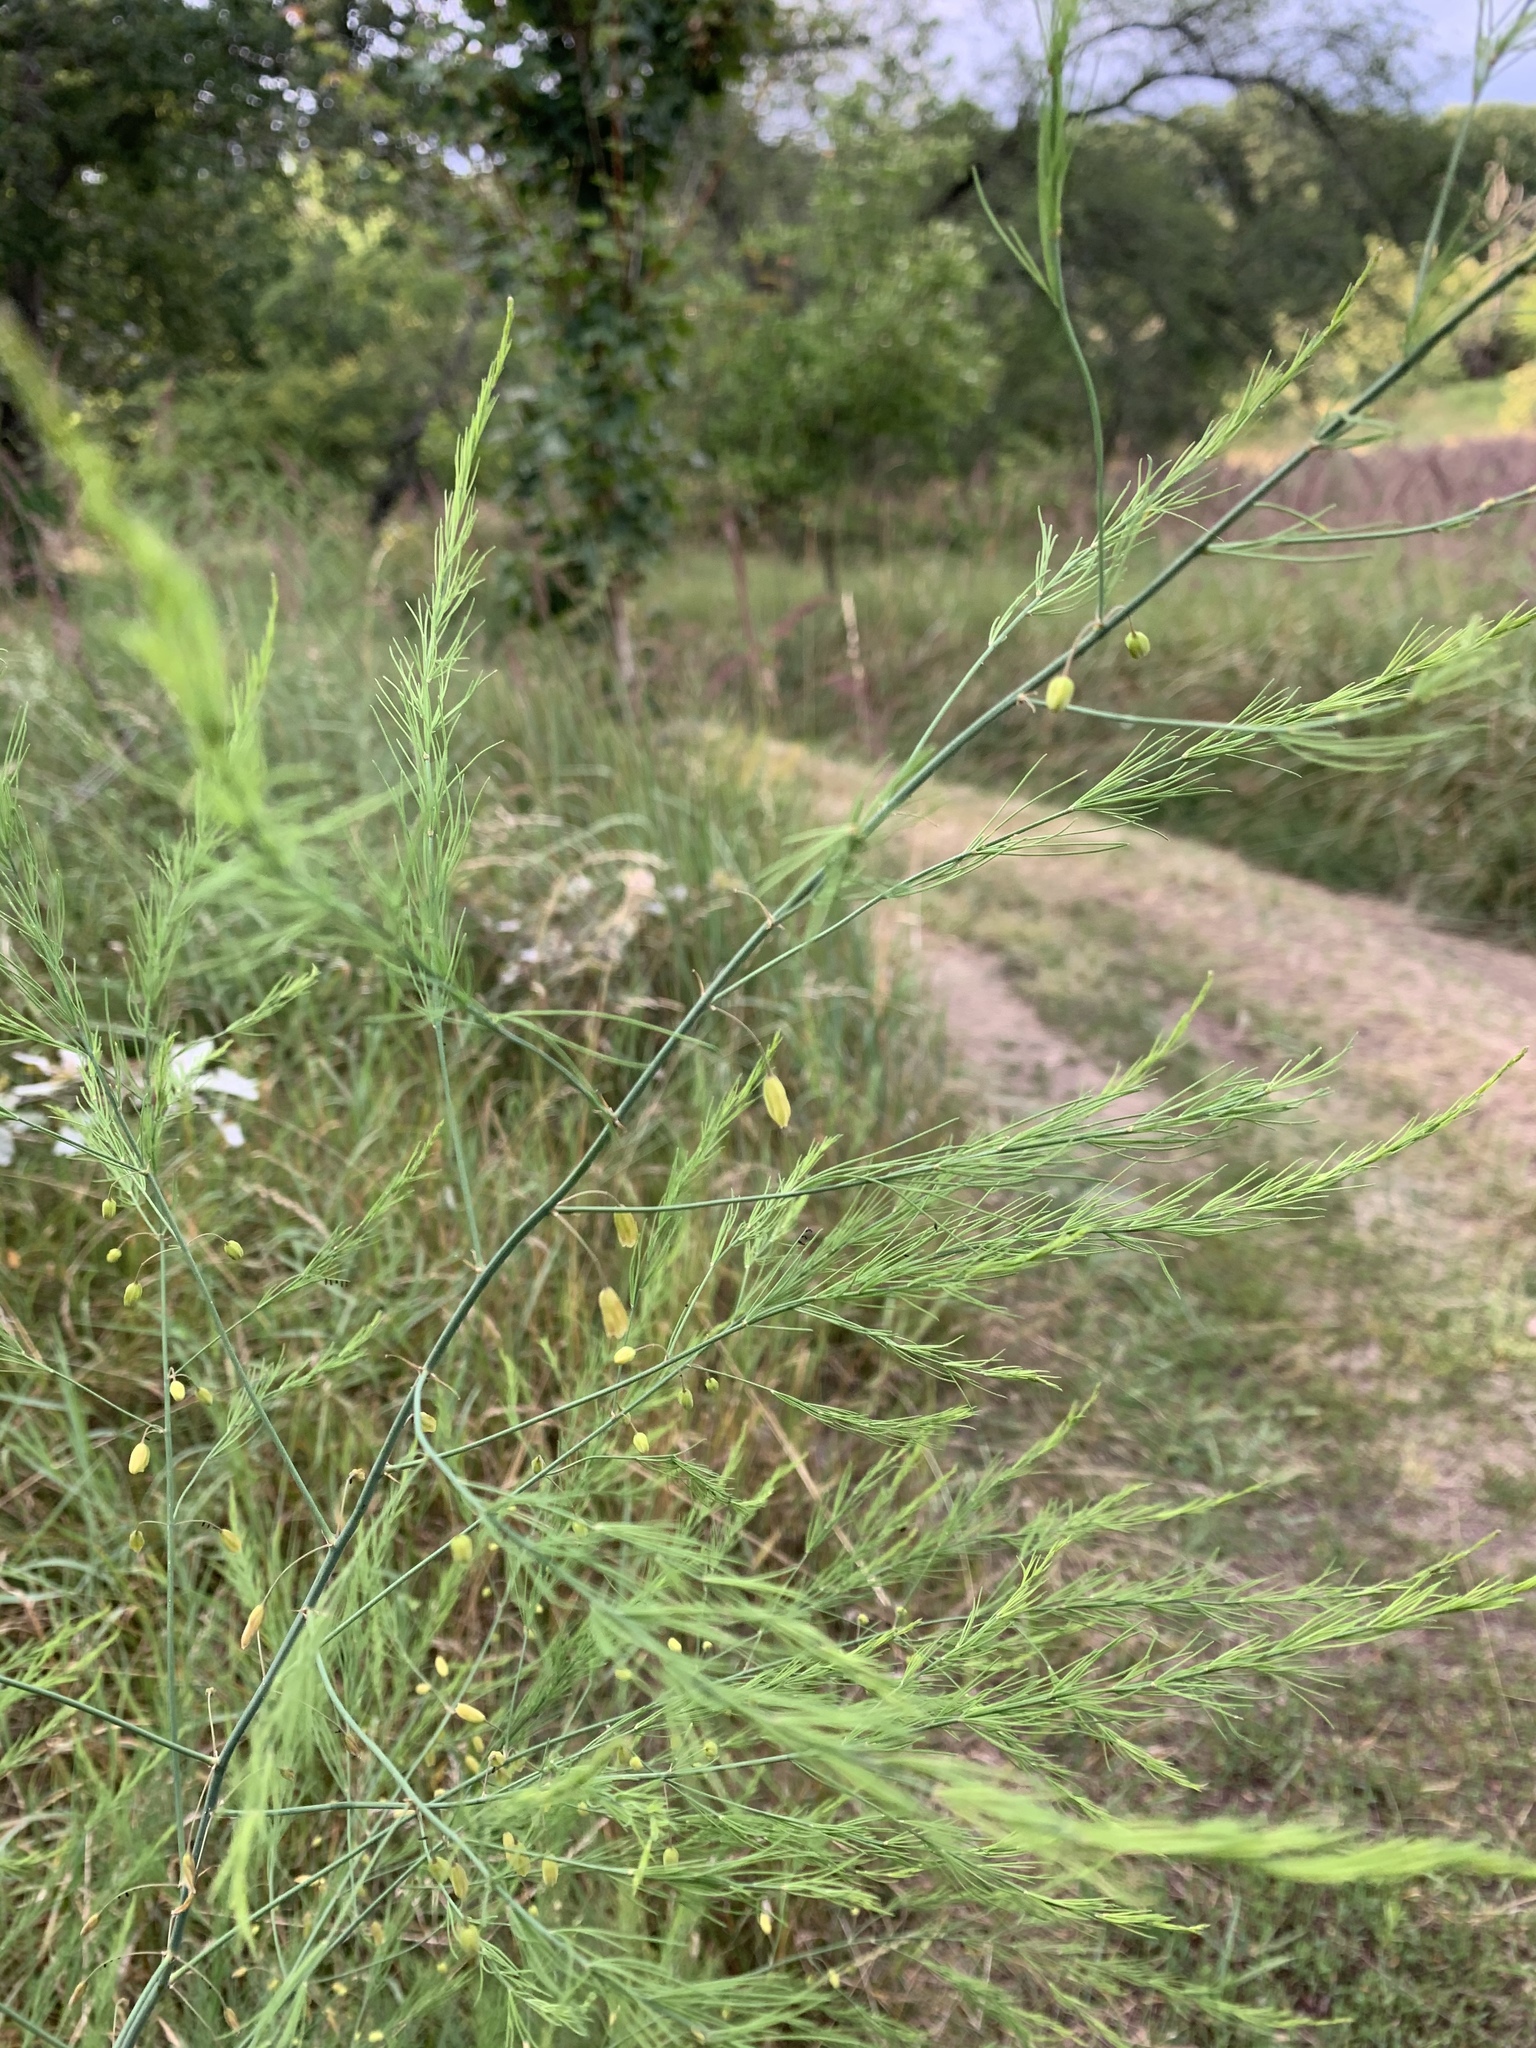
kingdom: Plantae
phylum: Tracheophyta
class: Liliopsida
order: Asparagales
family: Asparagaceae
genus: Asparagus
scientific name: Asparagus officinalis
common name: Garden asparagus
